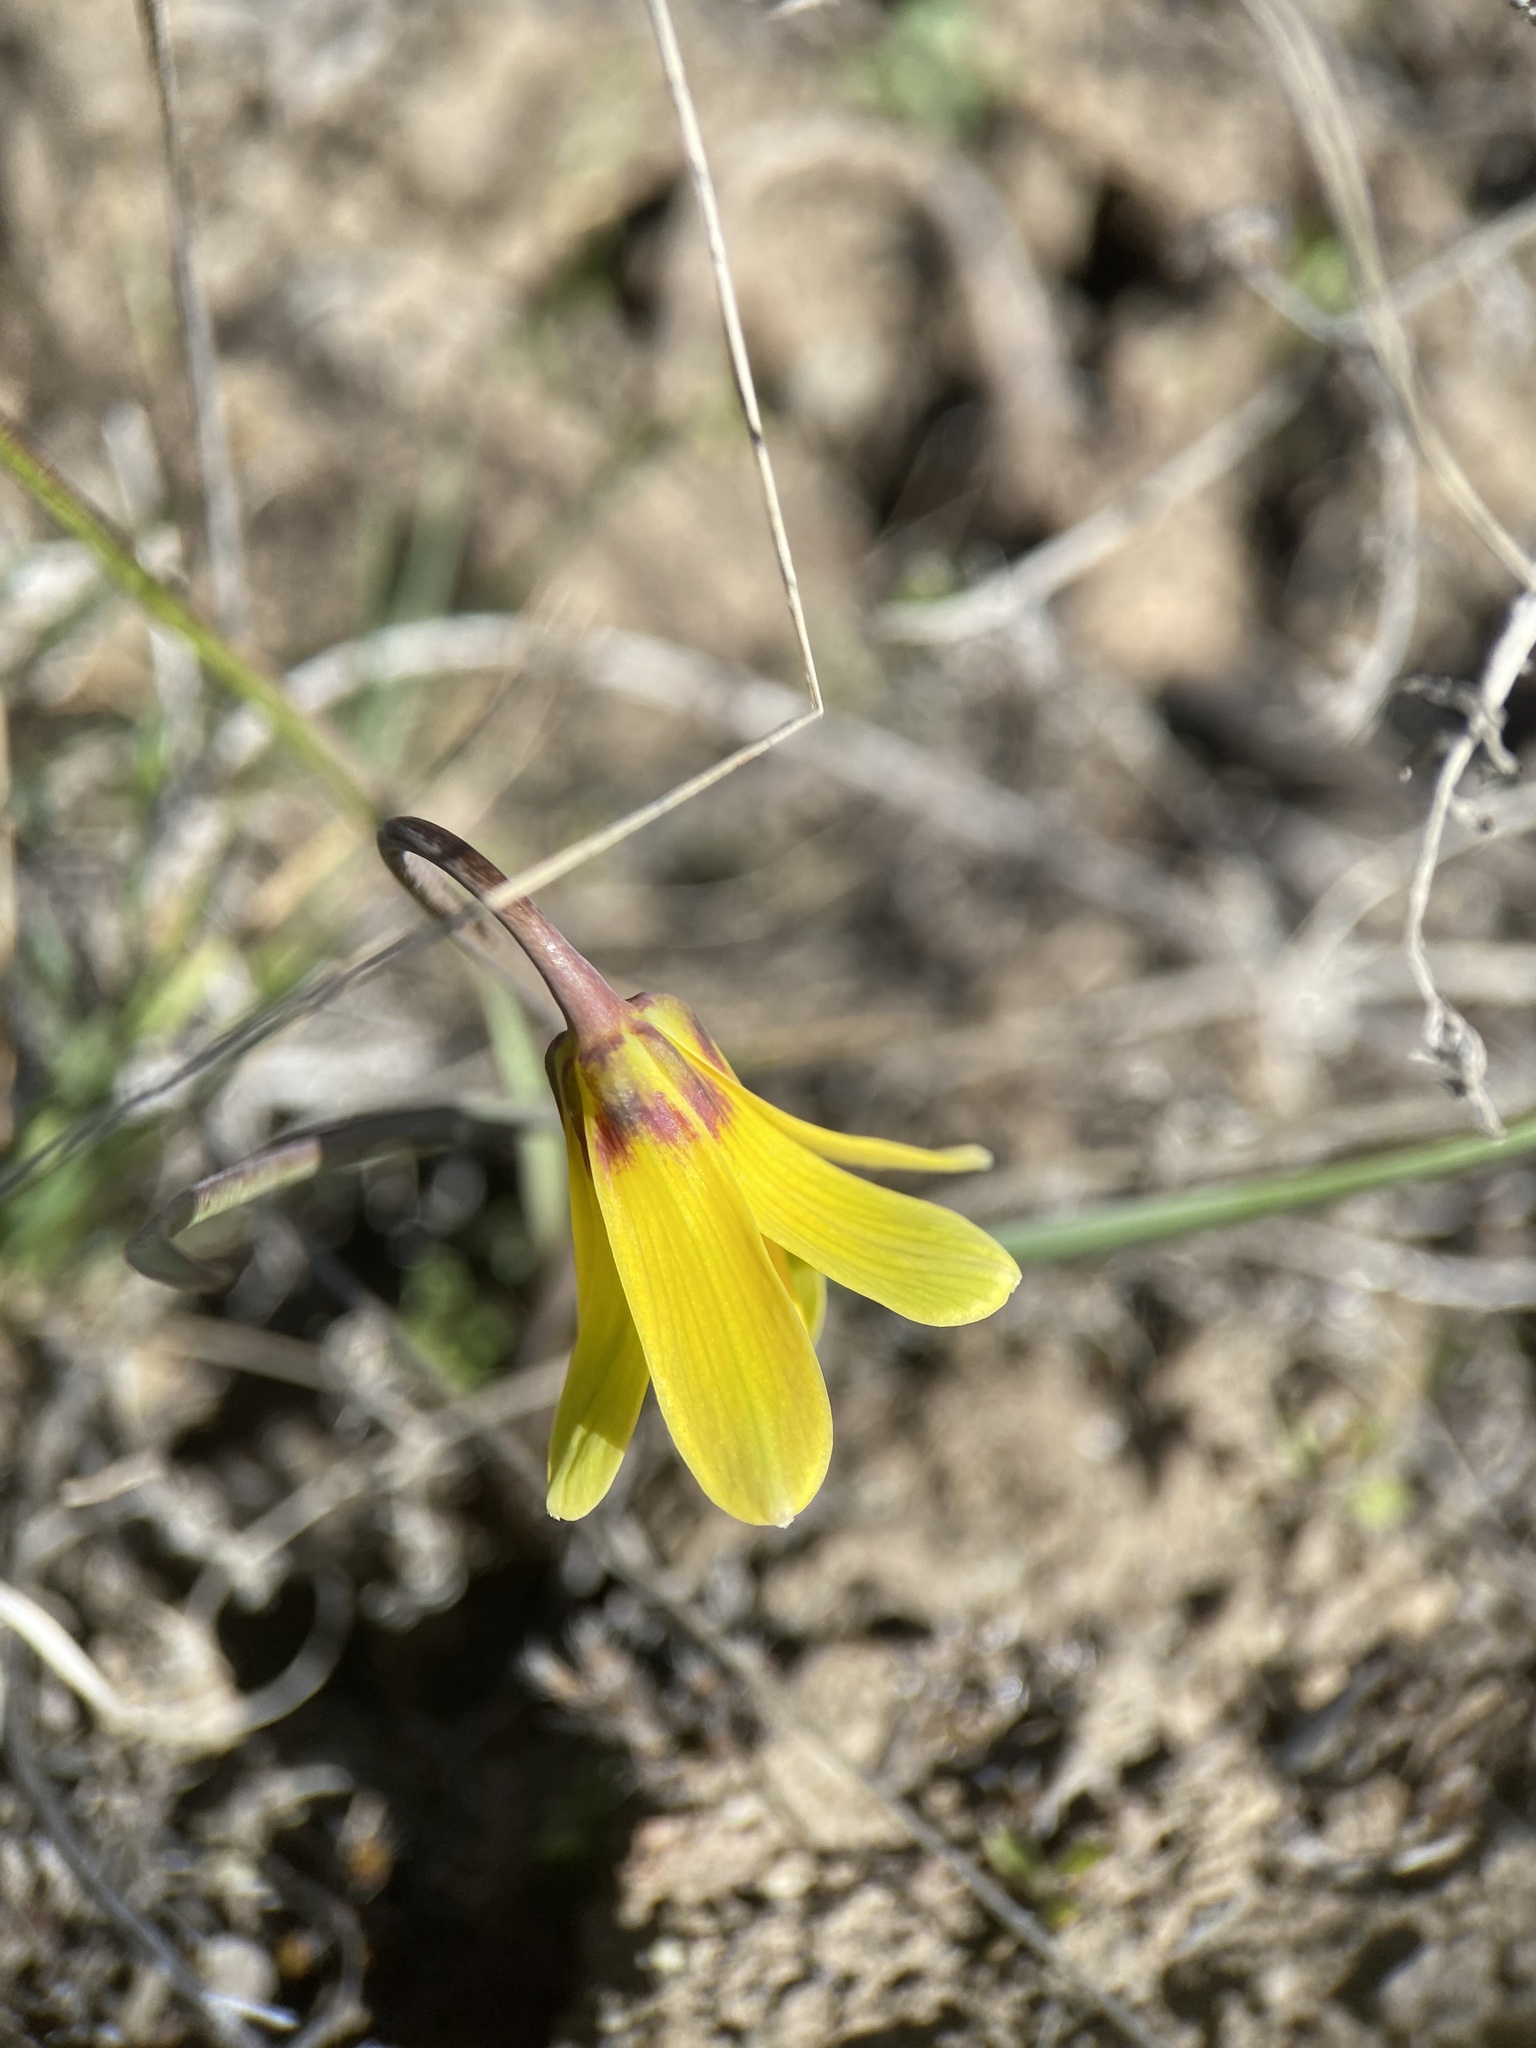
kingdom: Plantae
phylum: Tracheophyta
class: Liliopsida
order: Liliales
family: Liliaceae
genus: Fritillaria
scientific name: Fritillaria pudica
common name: Yellow fritillary
